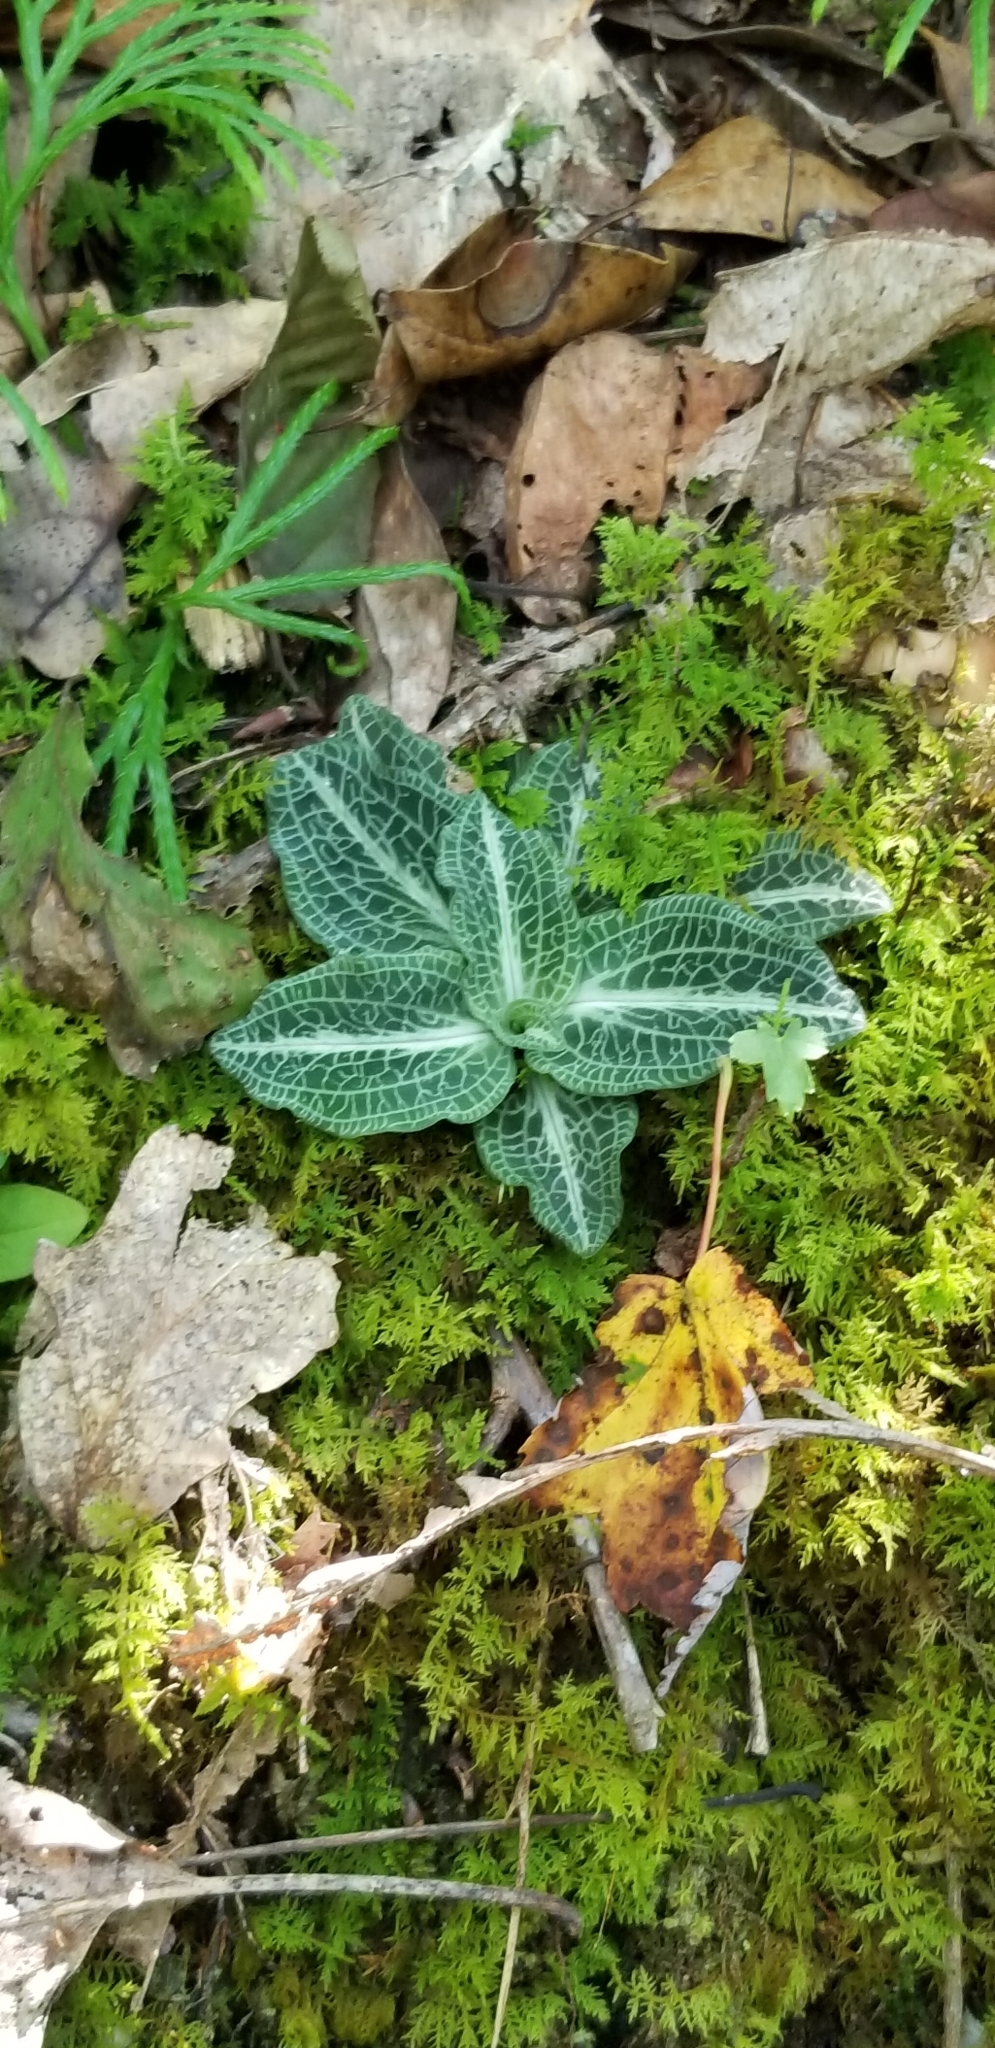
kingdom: Plantae
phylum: Tracheophyta
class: Liliopsida
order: Asparagales
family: Orchidaceae
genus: Goodyera
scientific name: Goodyera pubescens
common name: Downy rattlesnake-plantain
